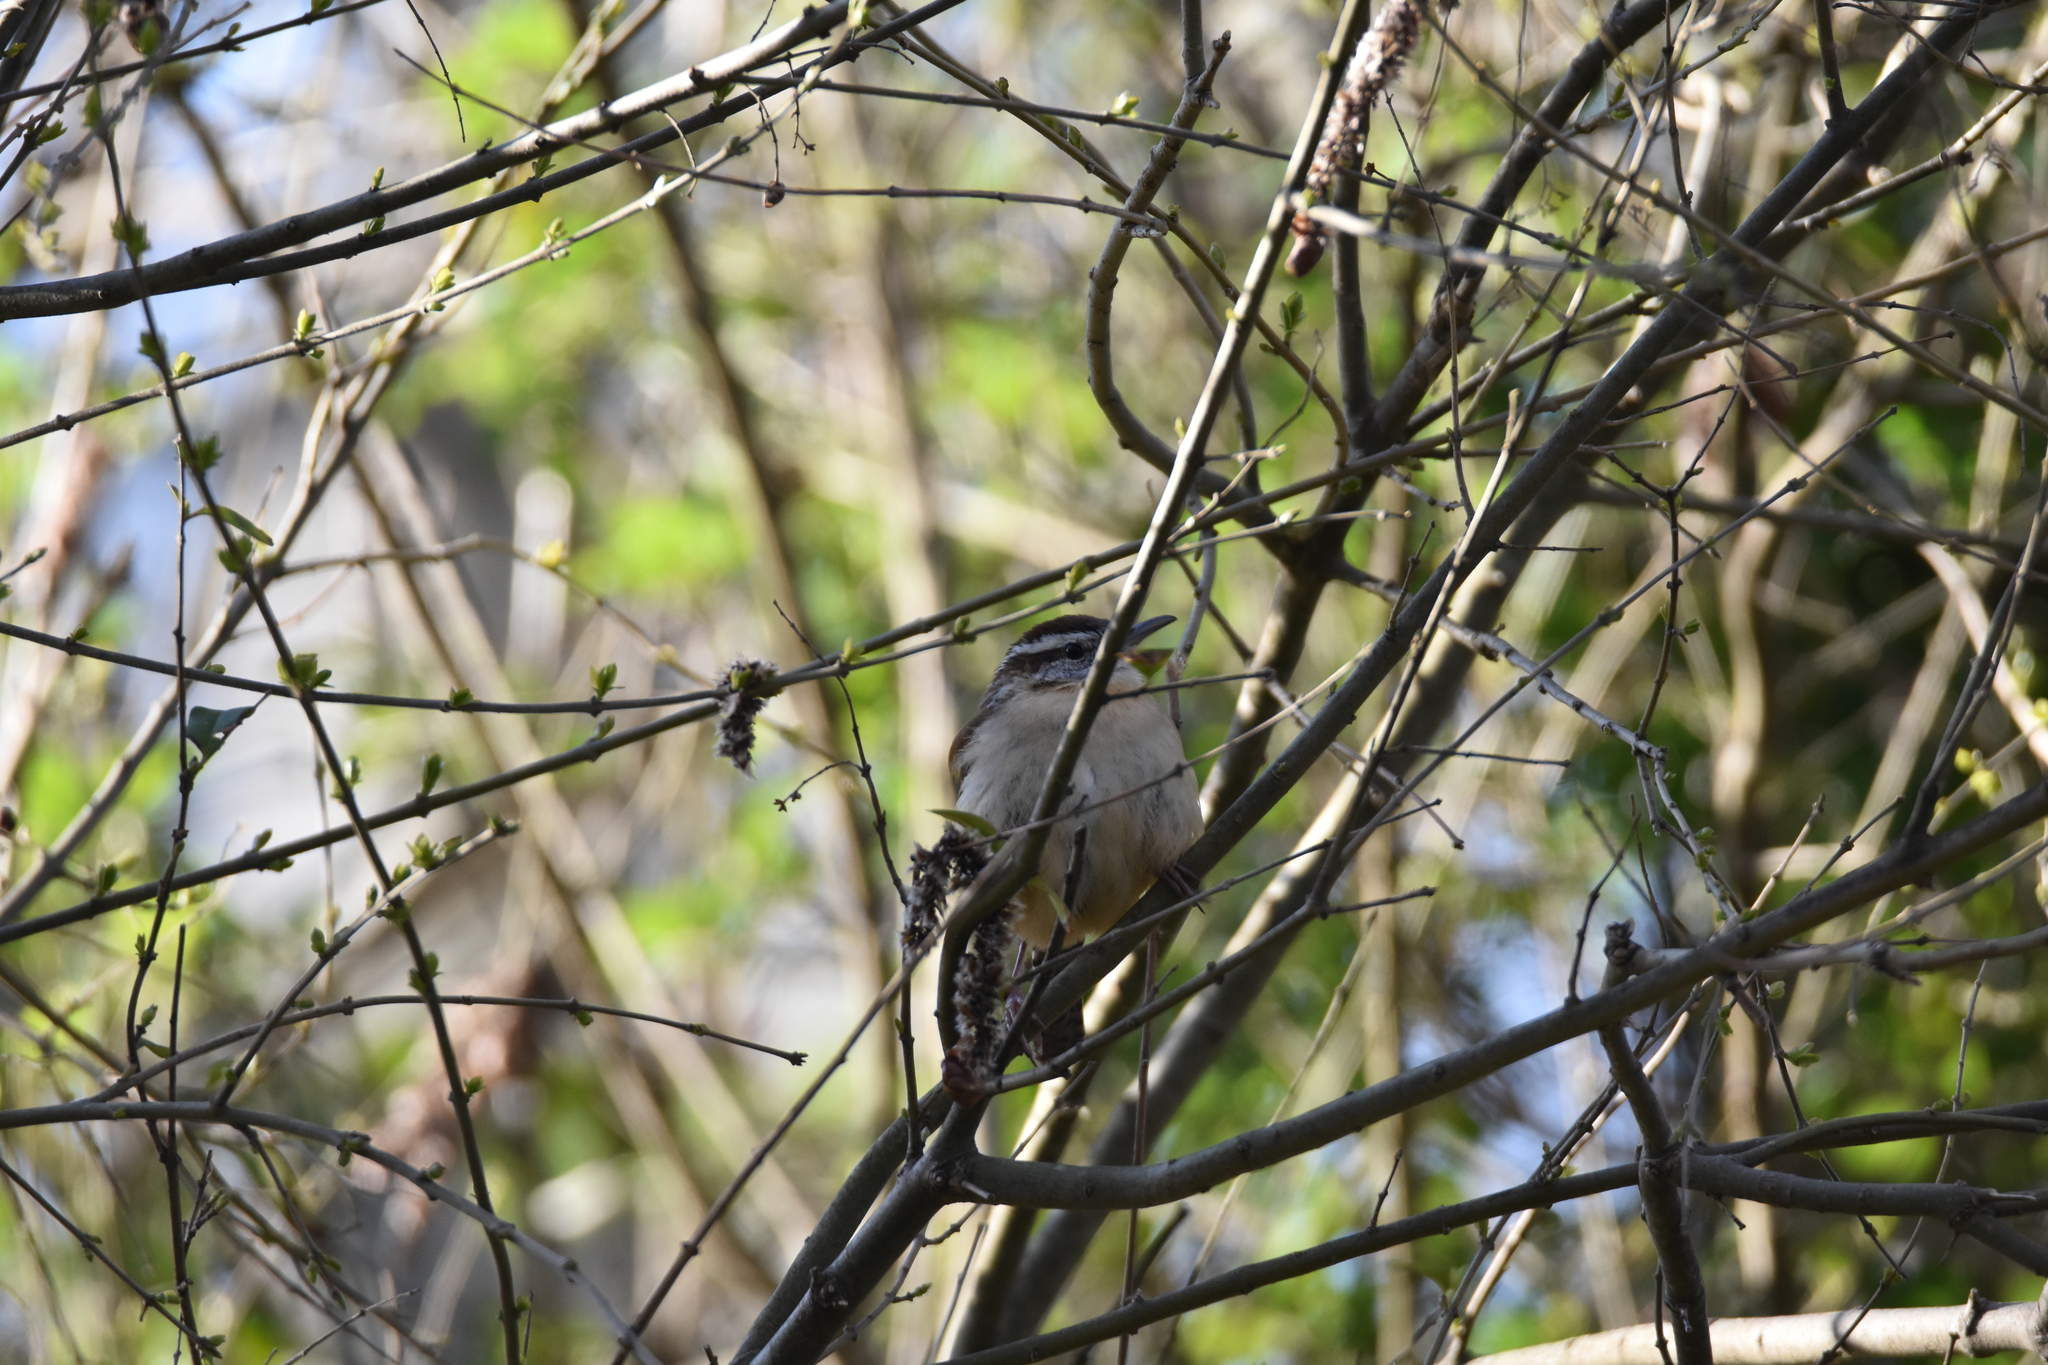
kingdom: Animalia
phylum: Chordata
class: Aves
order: Passeriformes
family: Troglodytidae
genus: Thryothorus
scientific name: Thryothorus ludovicianus
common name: Carolina wren
